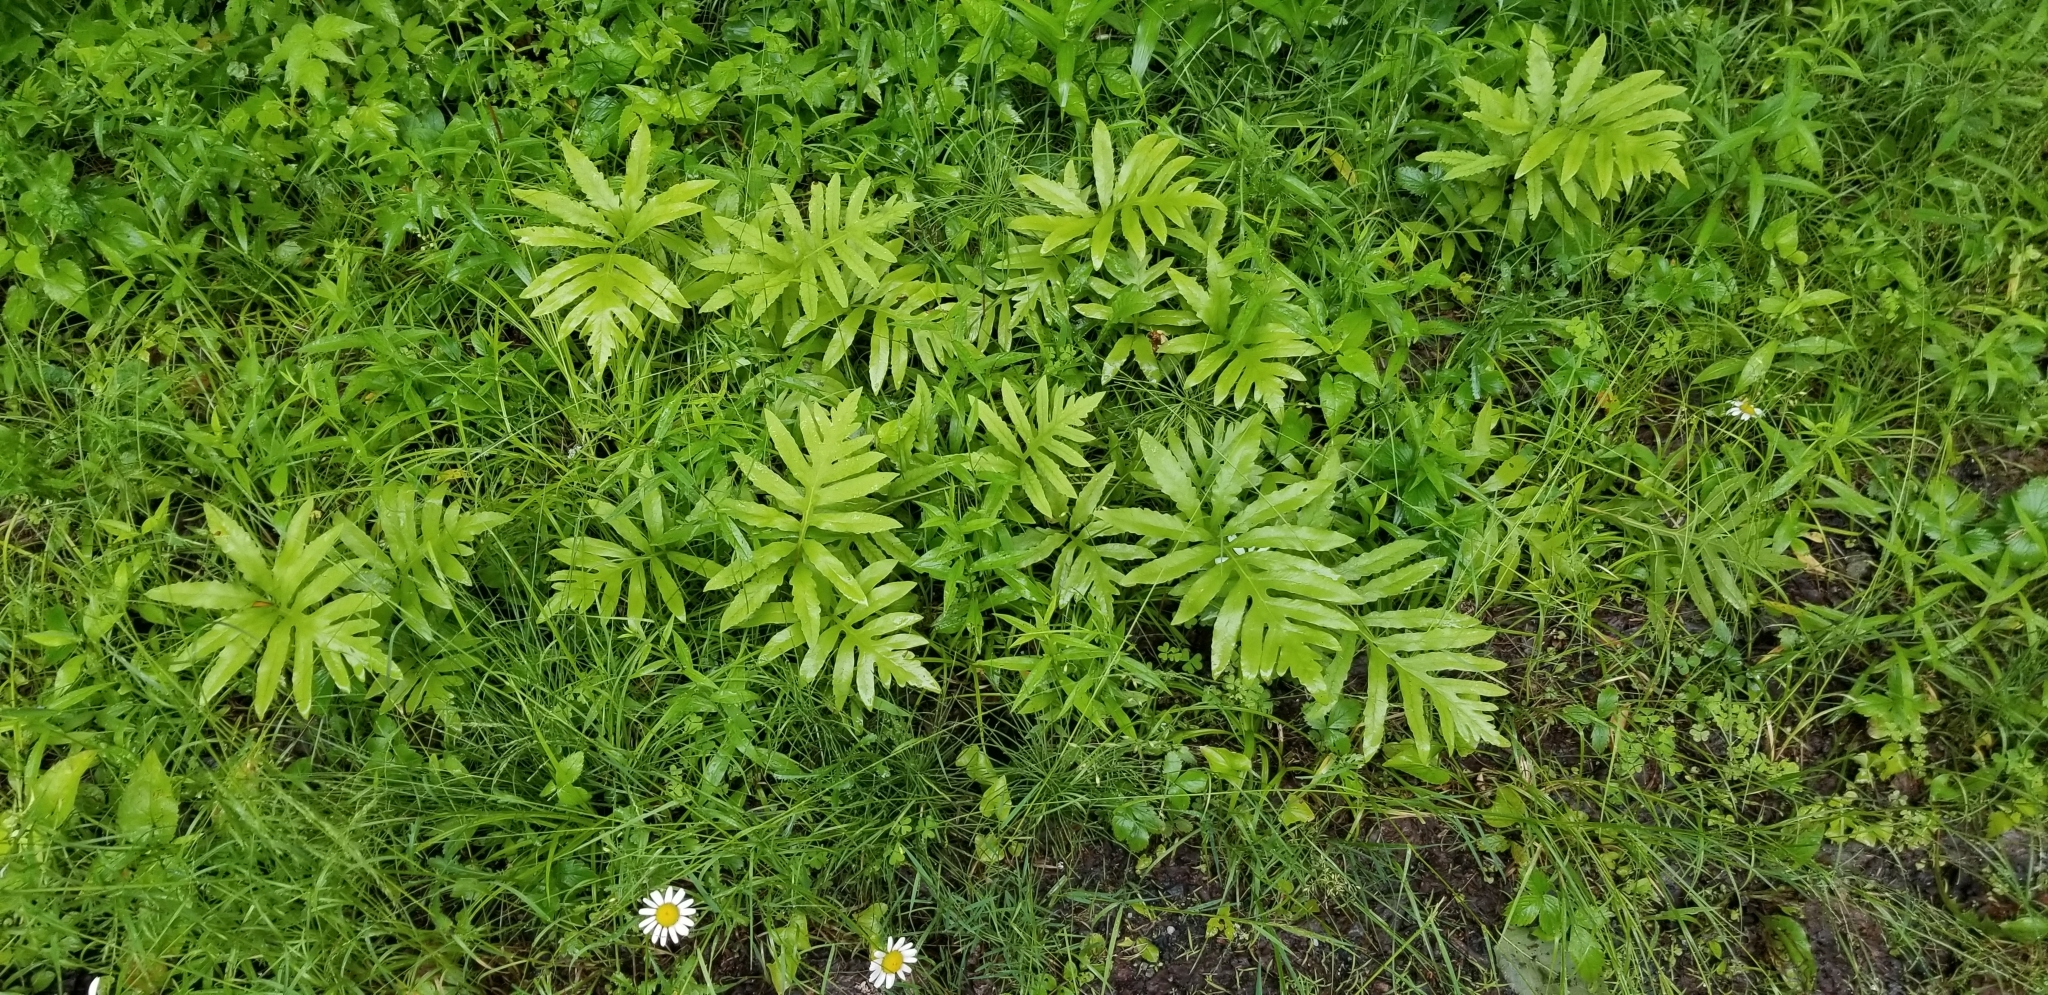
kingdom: Plantae
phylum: Tracheophyta
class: Polypodiopsida
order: Polypodiales
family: Onocleaceae
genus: Onoclea
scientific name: Onoclea sensibilis
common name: Sensitive fern
